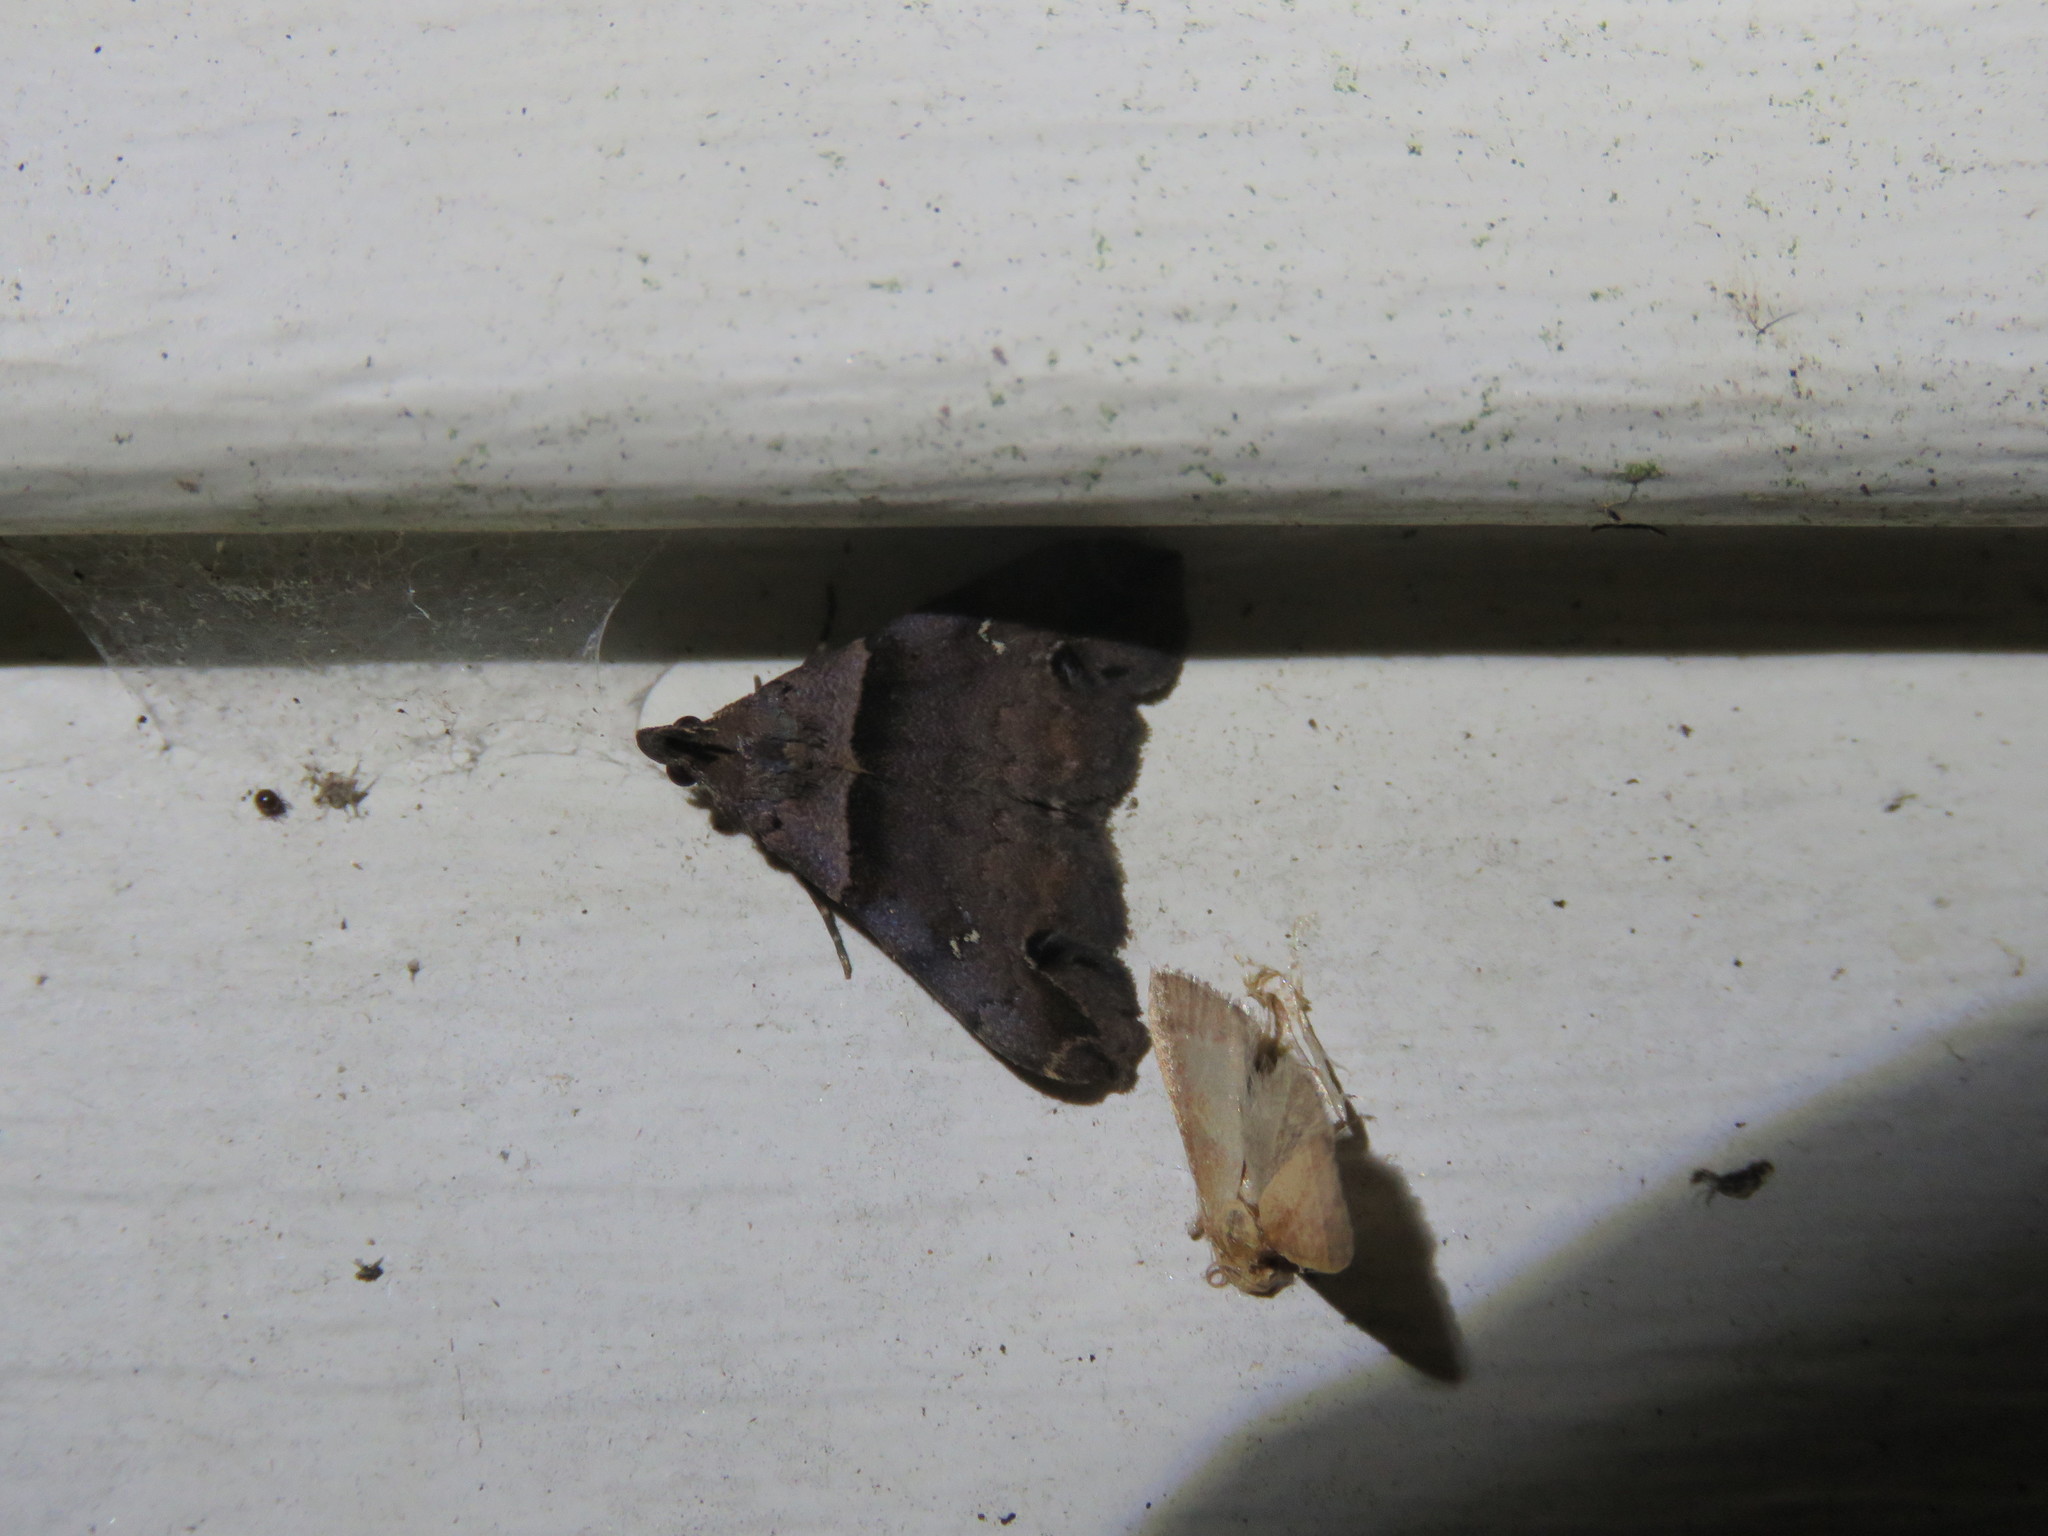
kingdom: Animalia
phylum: Arthropoda
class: Insecta
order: Lepidoptera
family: Erebidae
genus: Lascoria
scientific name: Lascoria ambigualis
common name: Ambiguous moth
